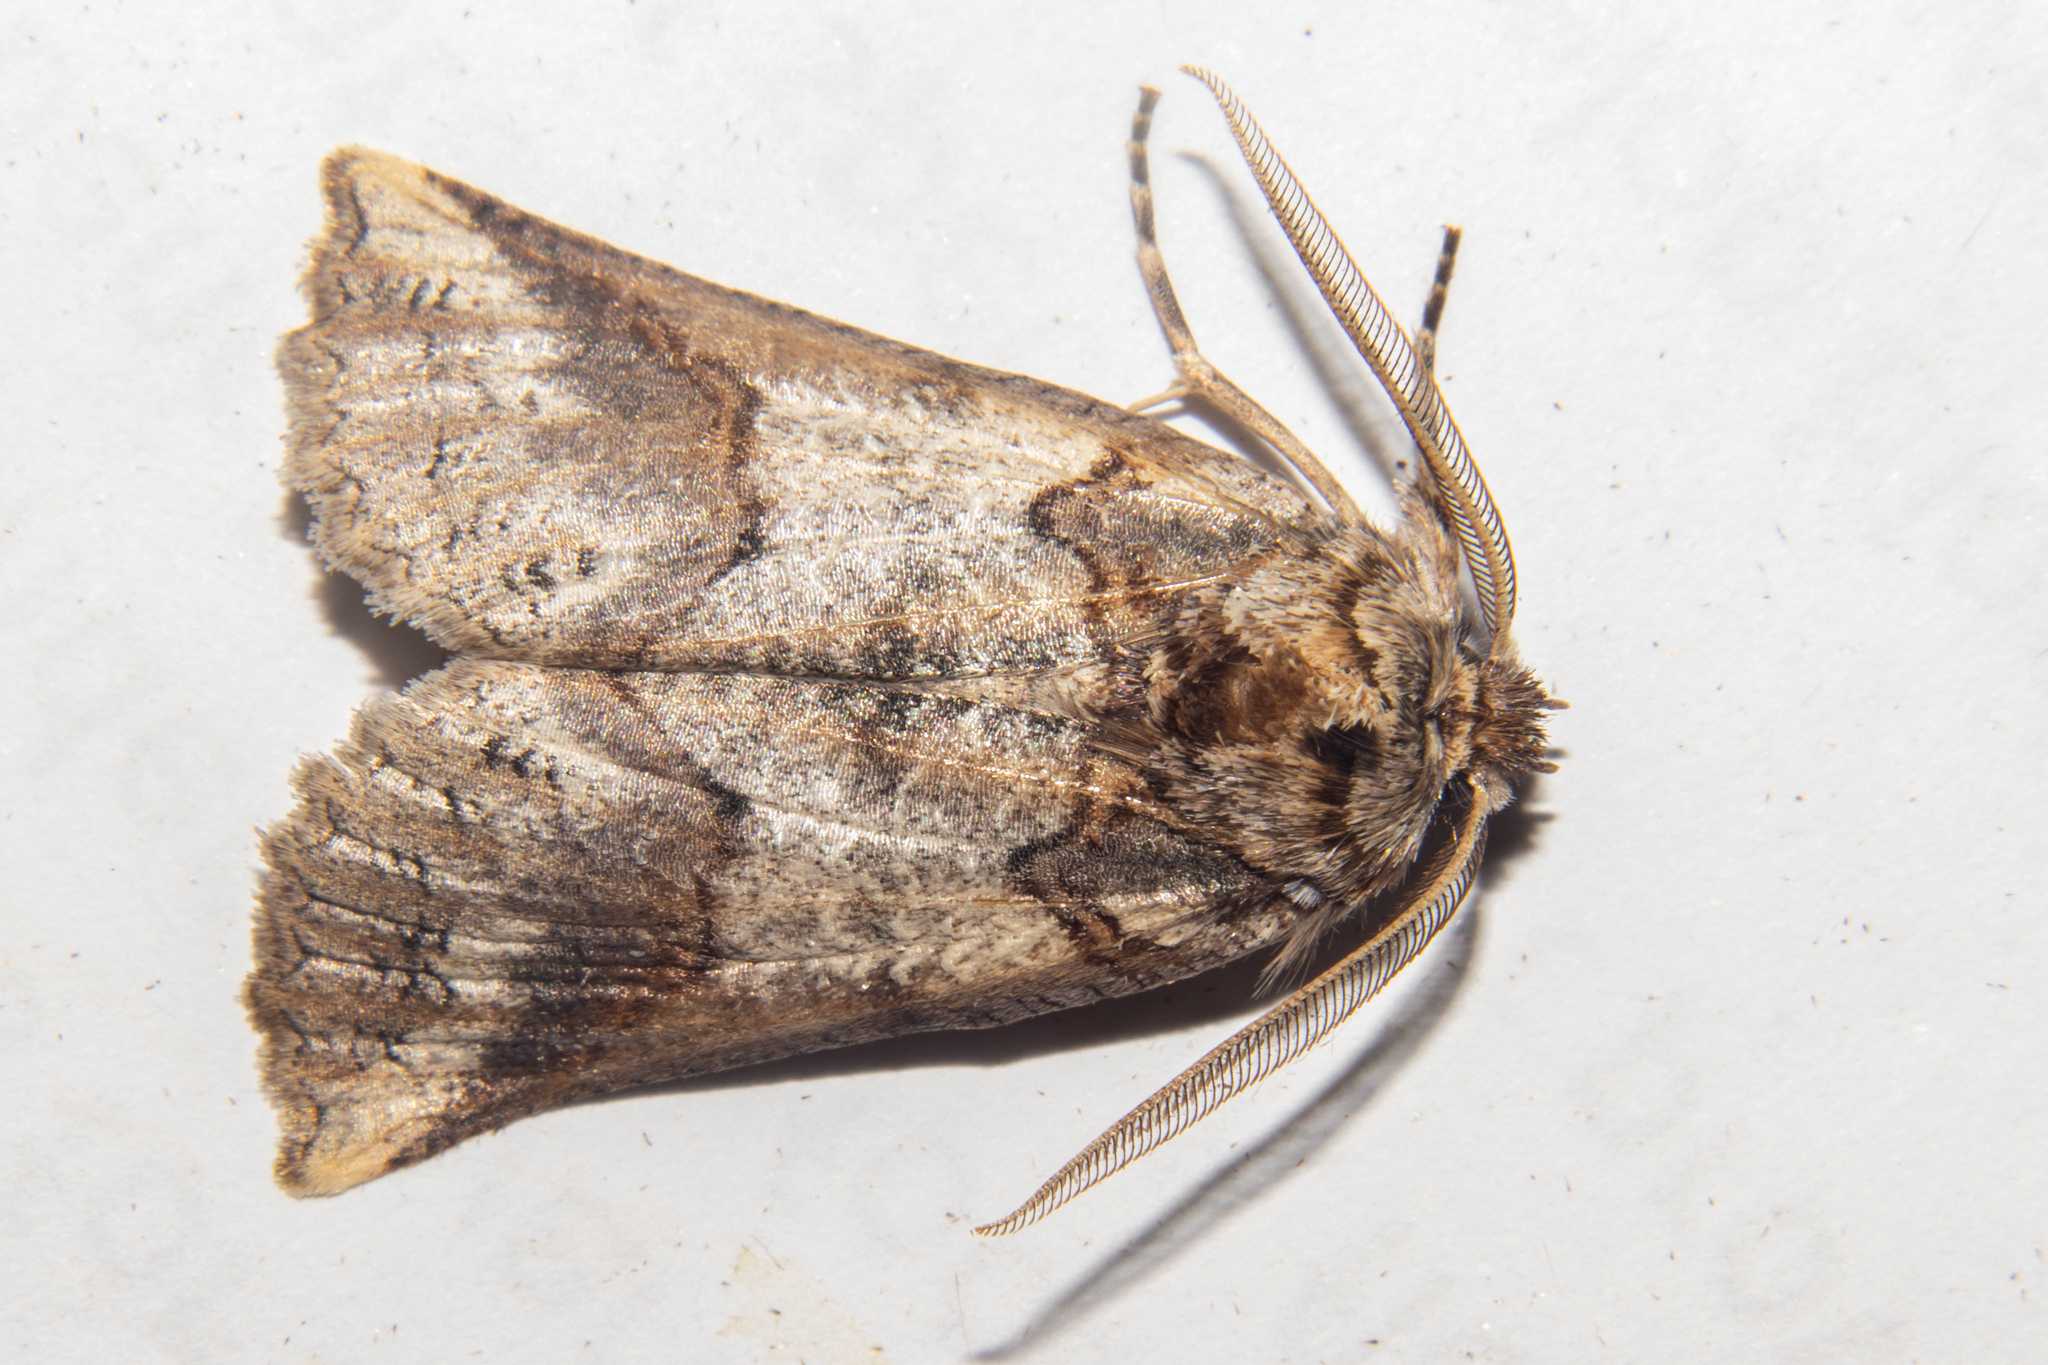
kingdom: Animalia
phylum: Arthropoda
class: Insecta
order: Lepidoptera
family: Geometridae
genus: Declana
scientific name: Declana
